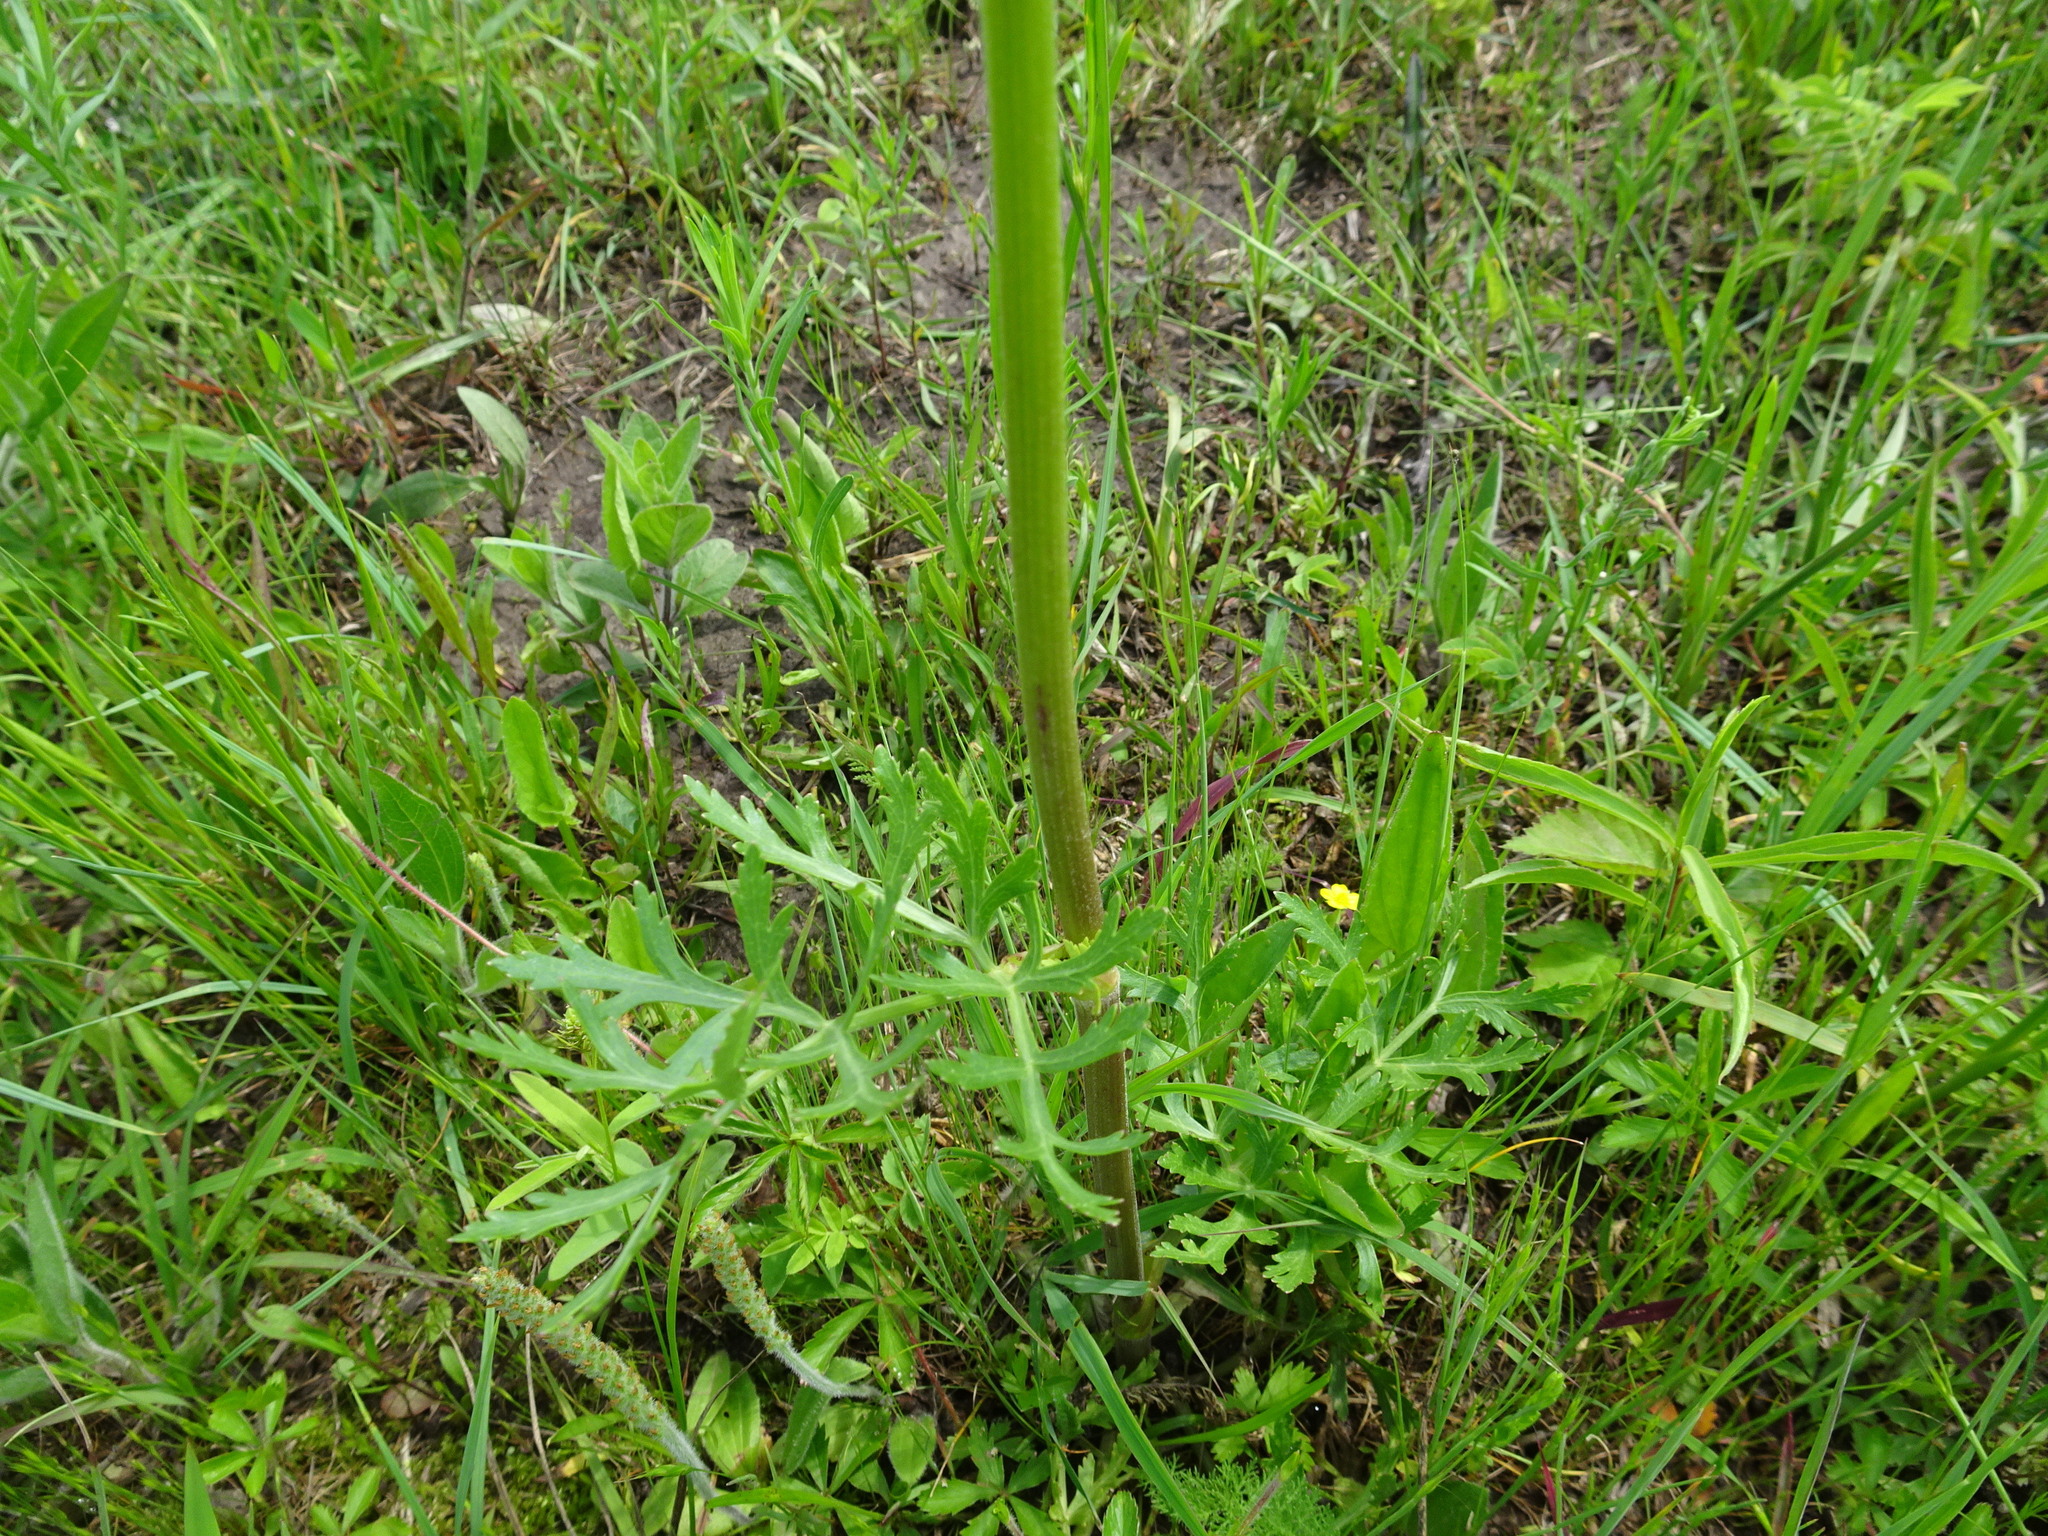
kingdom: Plantae
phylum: Tracheophyta
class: Magnoliopsida
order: Apiales
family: Apiaceae
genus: Polytaenia
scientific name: Polytaenia nuttallii
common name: Prairie-parsley
